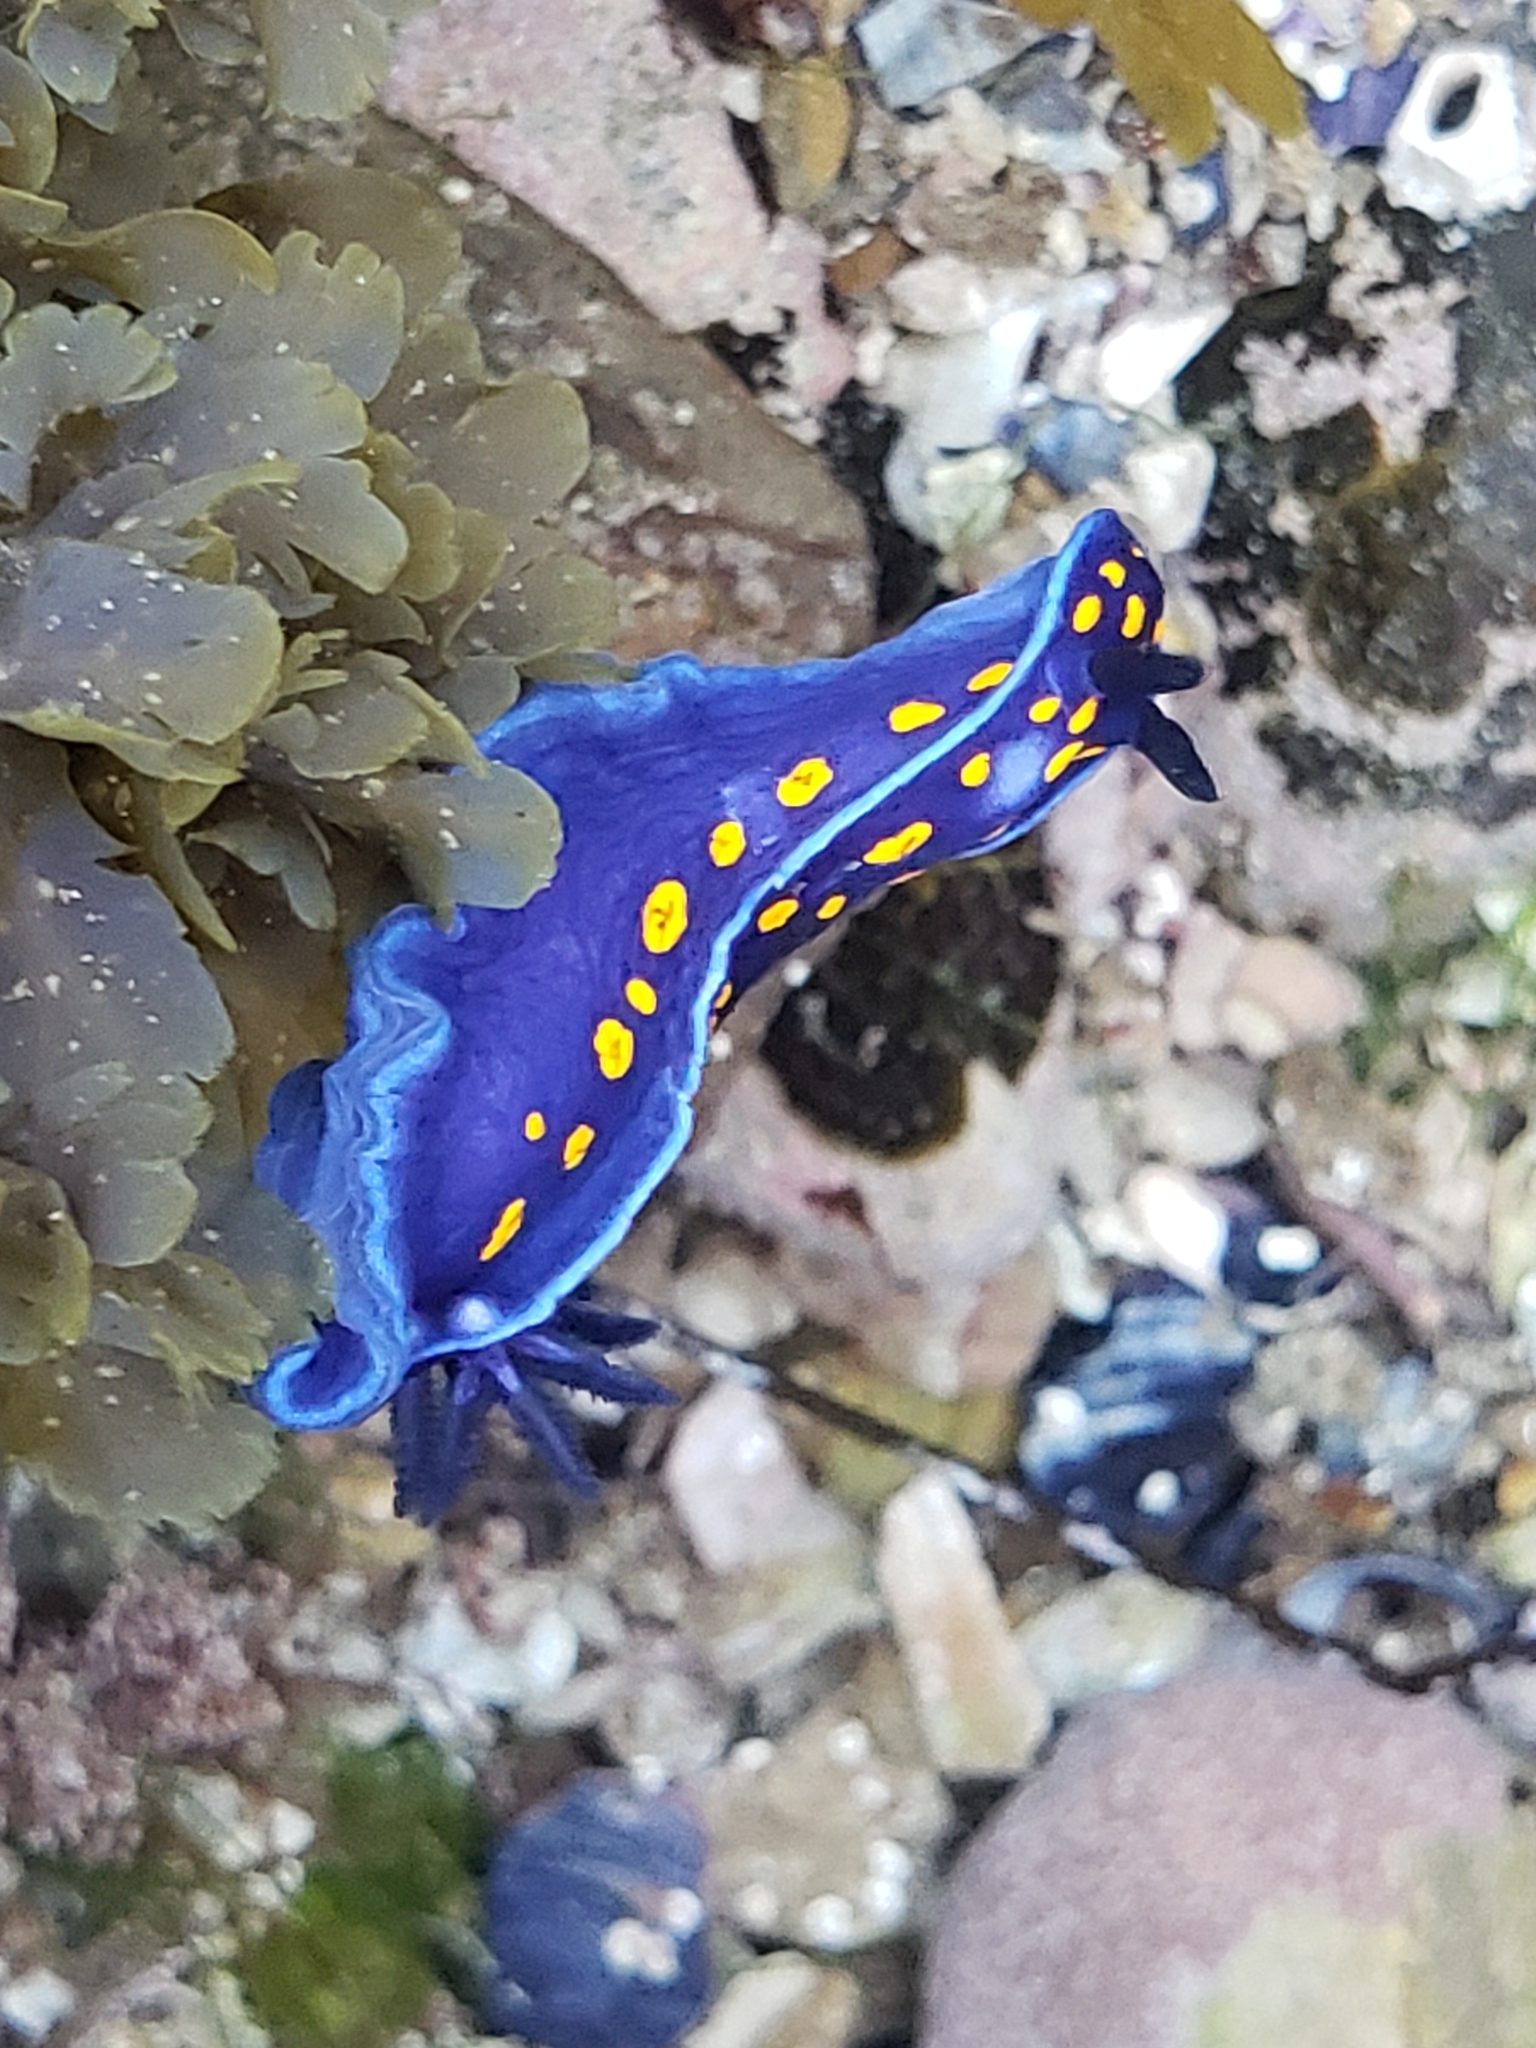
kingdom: Animalia
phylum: Mollusca
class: Gastropoda
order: Nudibranchia
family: Chromodorididae
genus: Felimare
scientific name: Felimare californiensis
